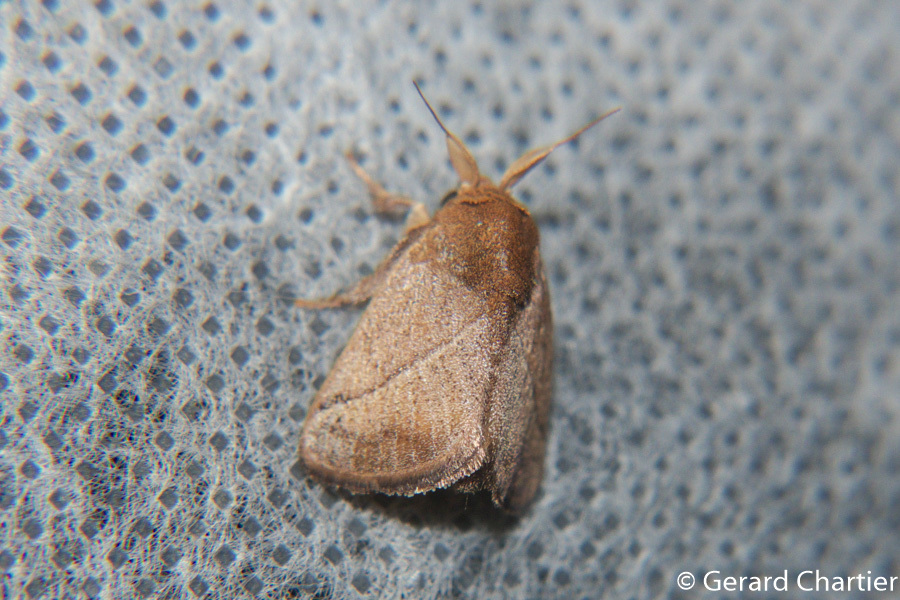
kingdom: Animalia
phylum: Arthropoda
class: Insecta
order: Lepidoptera
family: Limacodidae
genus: Mambarona
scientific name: Mambarona congrua
